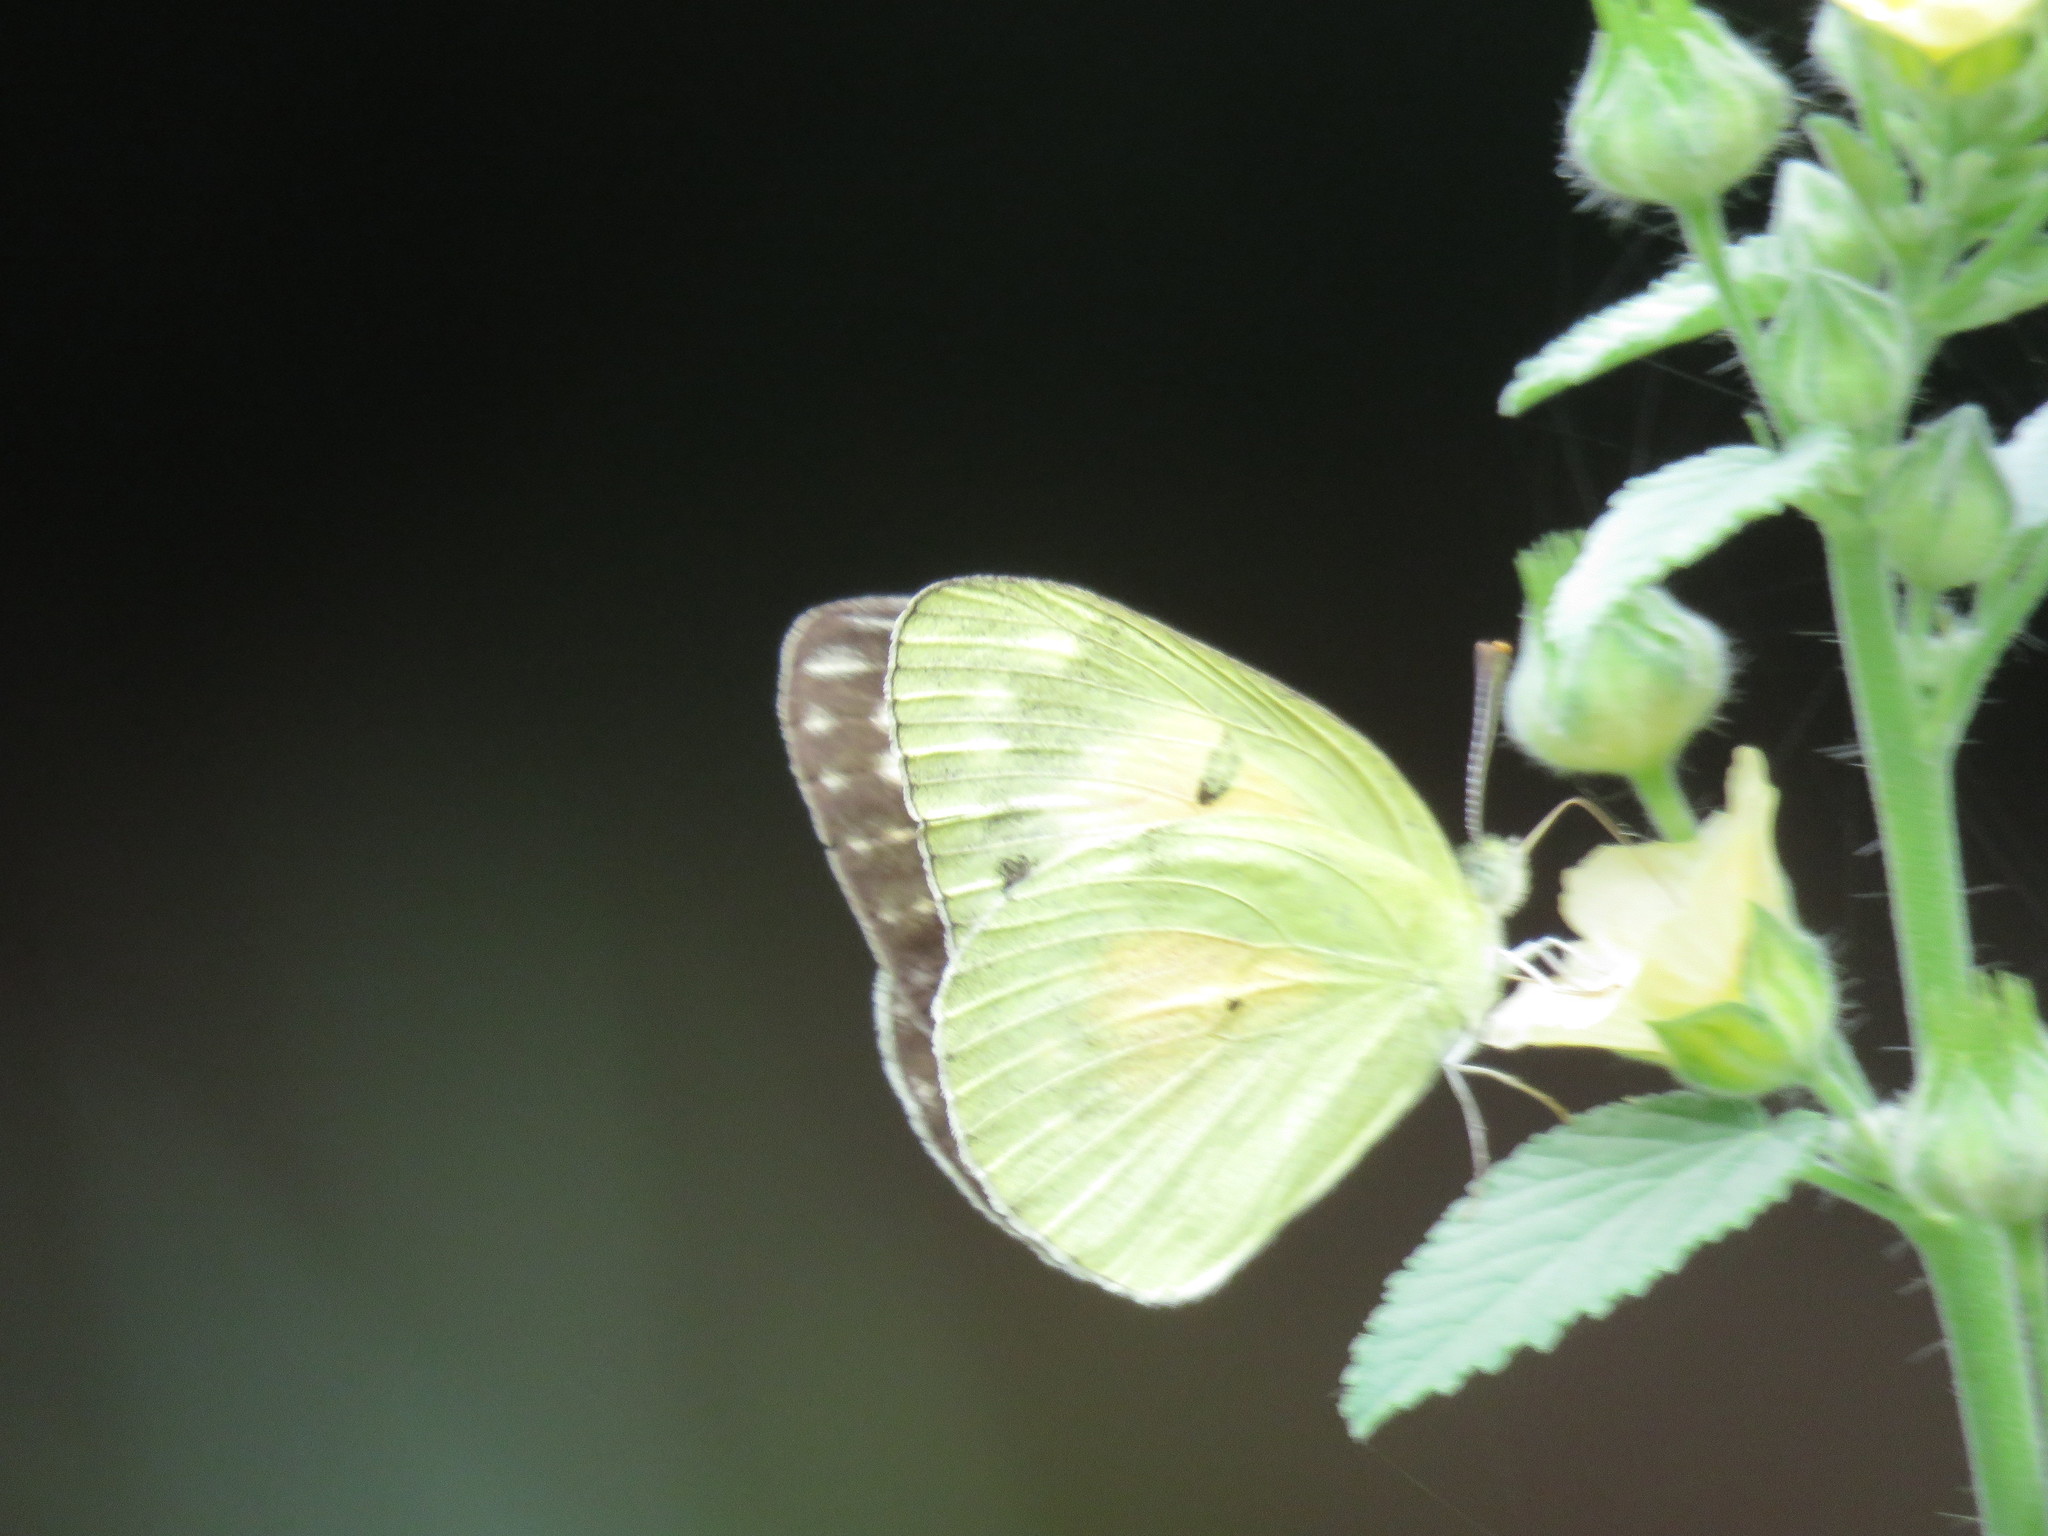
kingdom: Animalia
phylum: Arthropoda
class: Insecta
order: Lepidoptera
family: Pieridae
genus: Colotis
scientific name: Colotis amata
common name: Small salmon arab
